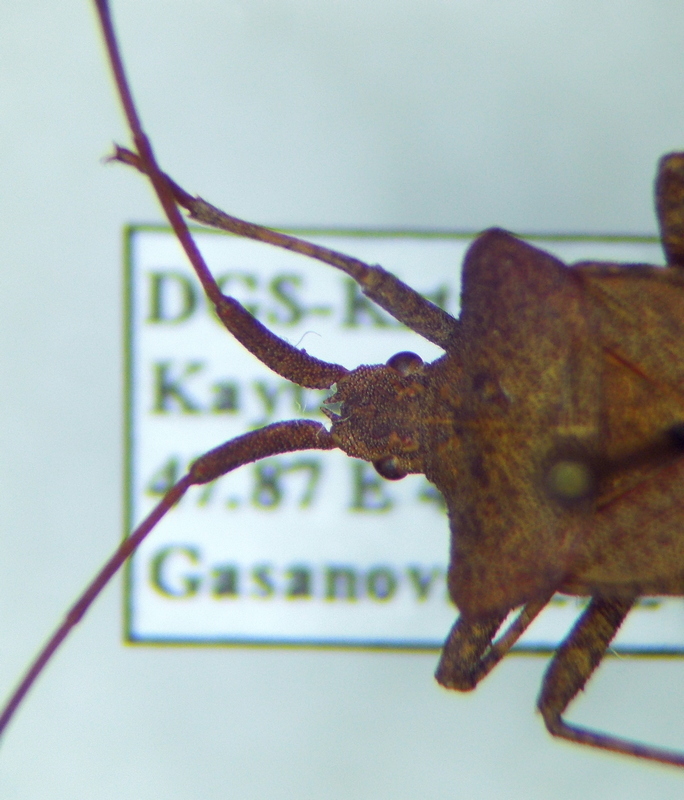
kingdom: Animalia
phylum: Arthropoda
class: Insecta
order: Hemiptera
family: Coreidae
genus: Coreus
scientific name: Coreus marginatus
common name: Dock bug
